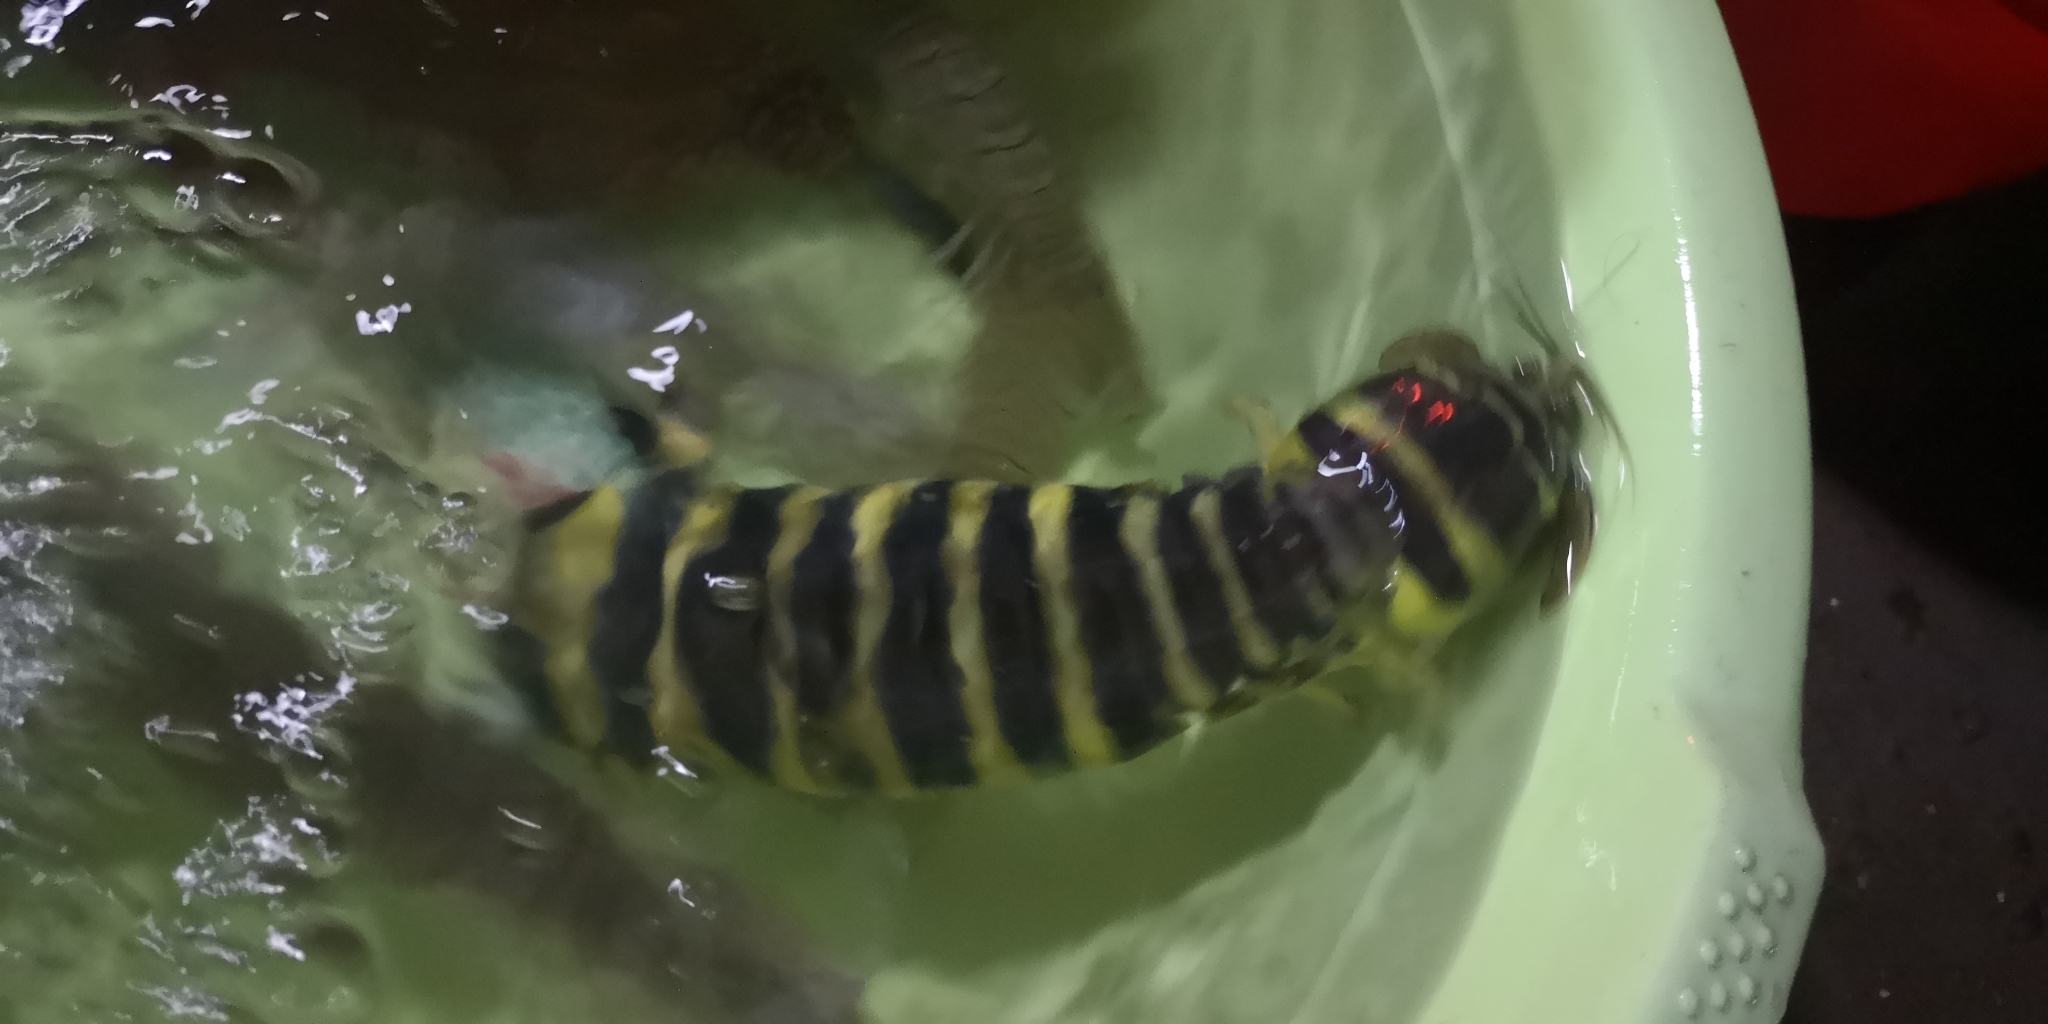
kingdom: Animalia
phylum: Arthropoda
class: Malacostraca
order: Stomatopoda
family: Lysiosquillidae
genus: Lysiosquilla
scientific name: Lysiosquilla tredecimdentata
